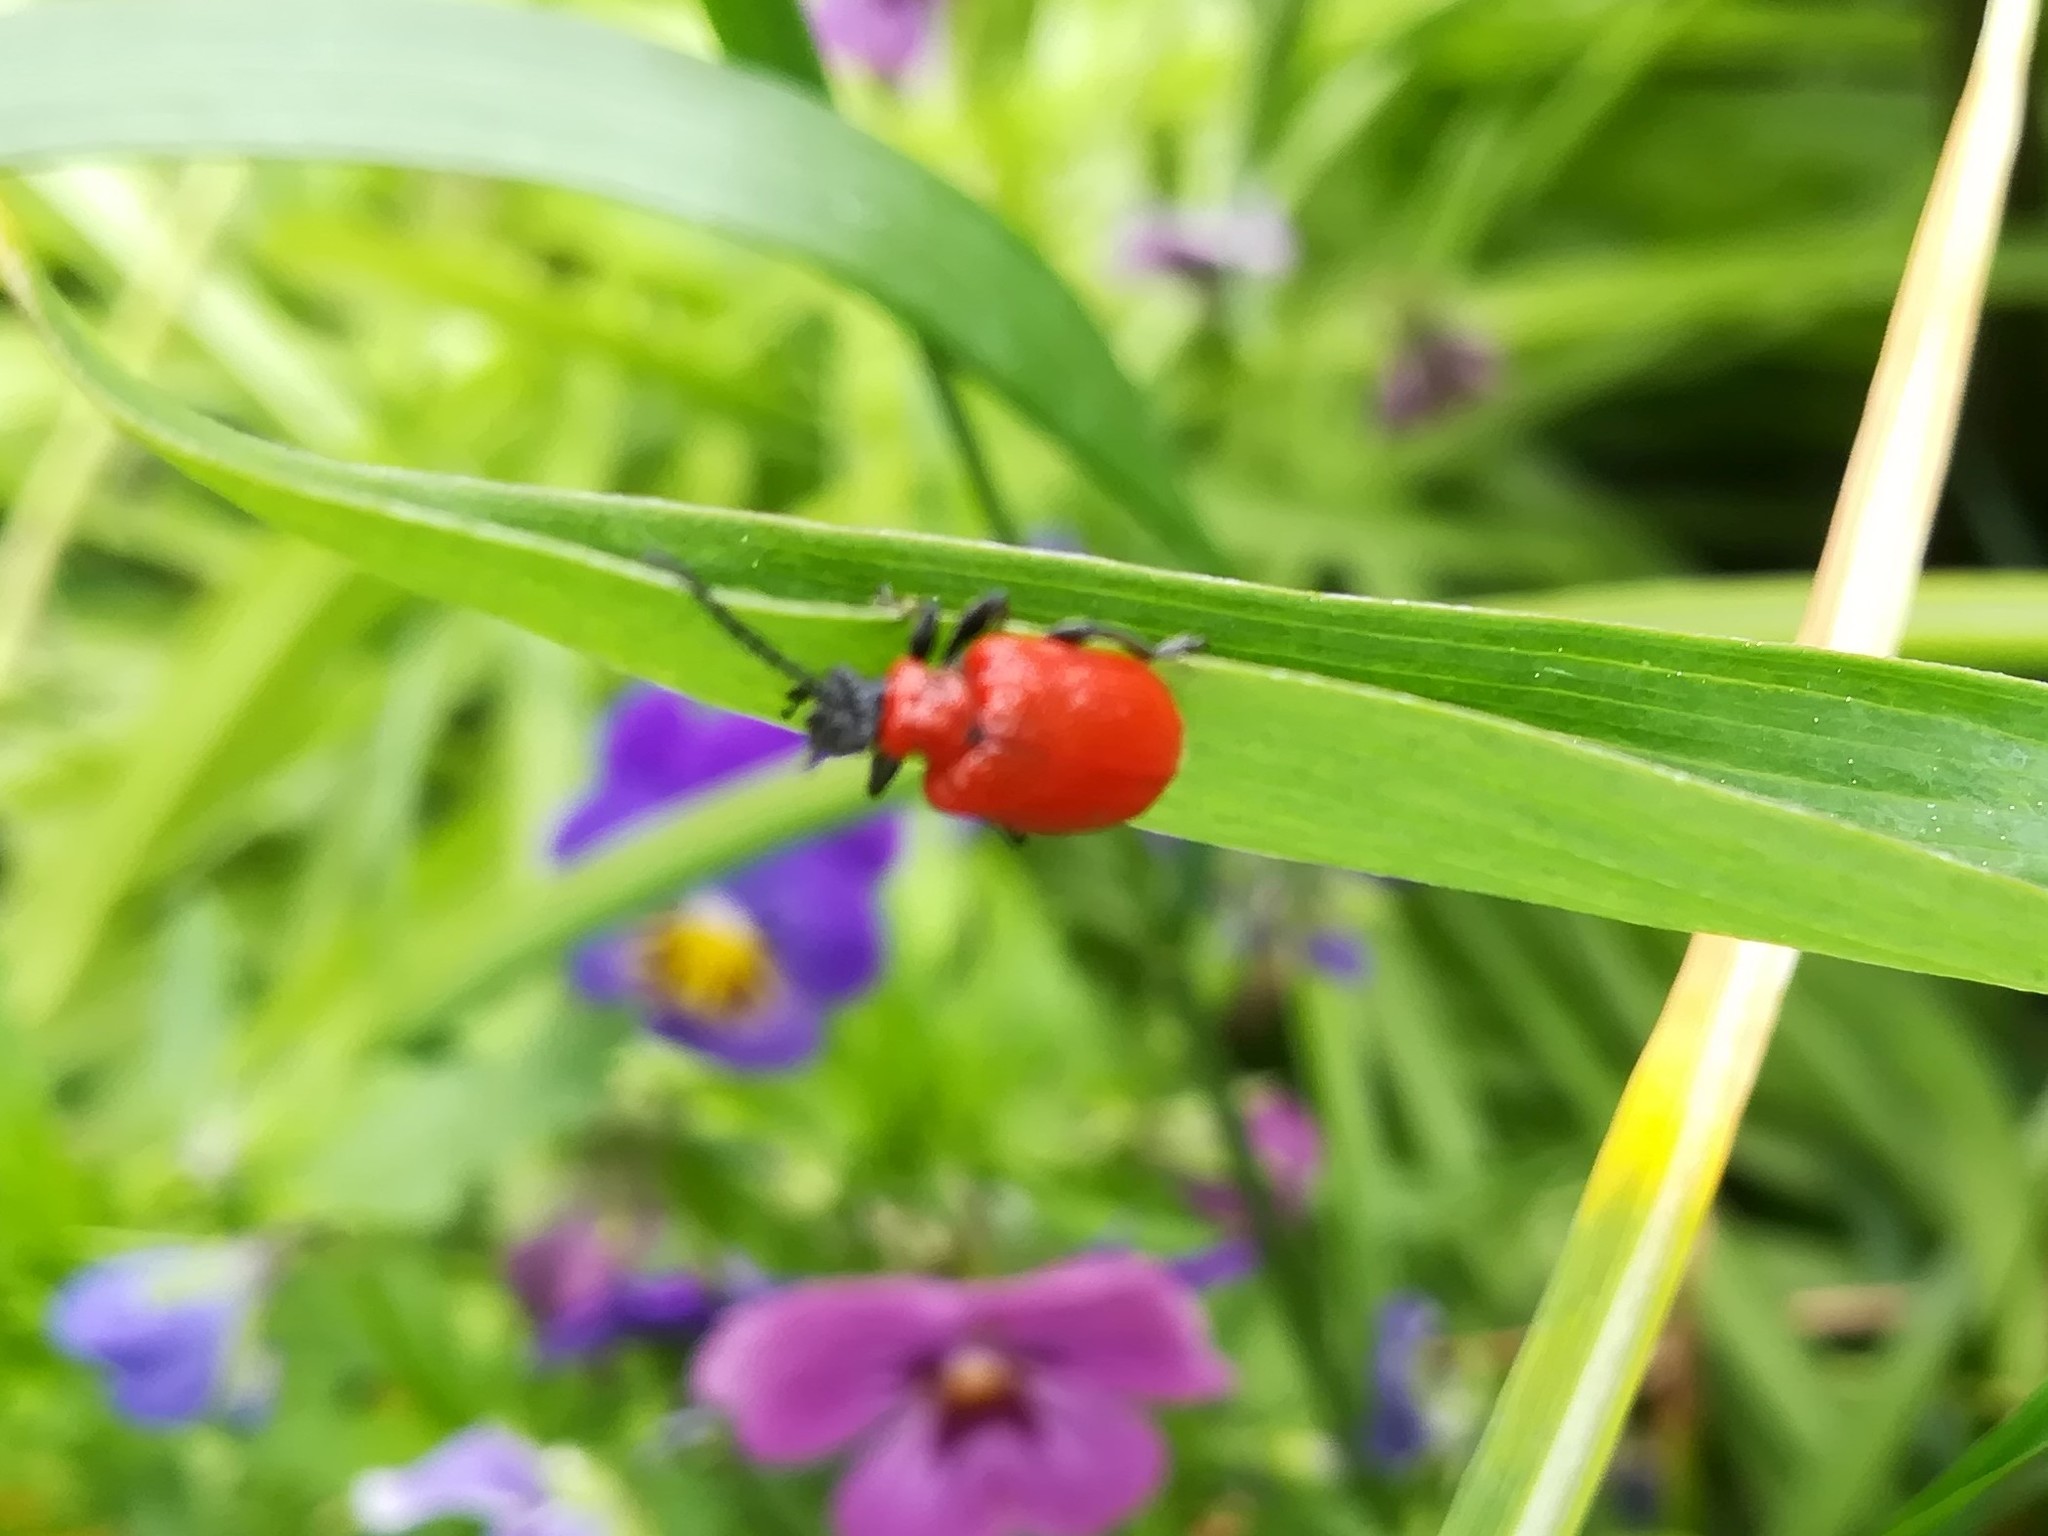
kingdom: Animalia
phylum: Arthropoda
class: Insecta
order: Coleoptera
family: Chrysomelidae
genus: Lilioceris
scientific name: Lilioceris lilii
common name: Lily beetle
